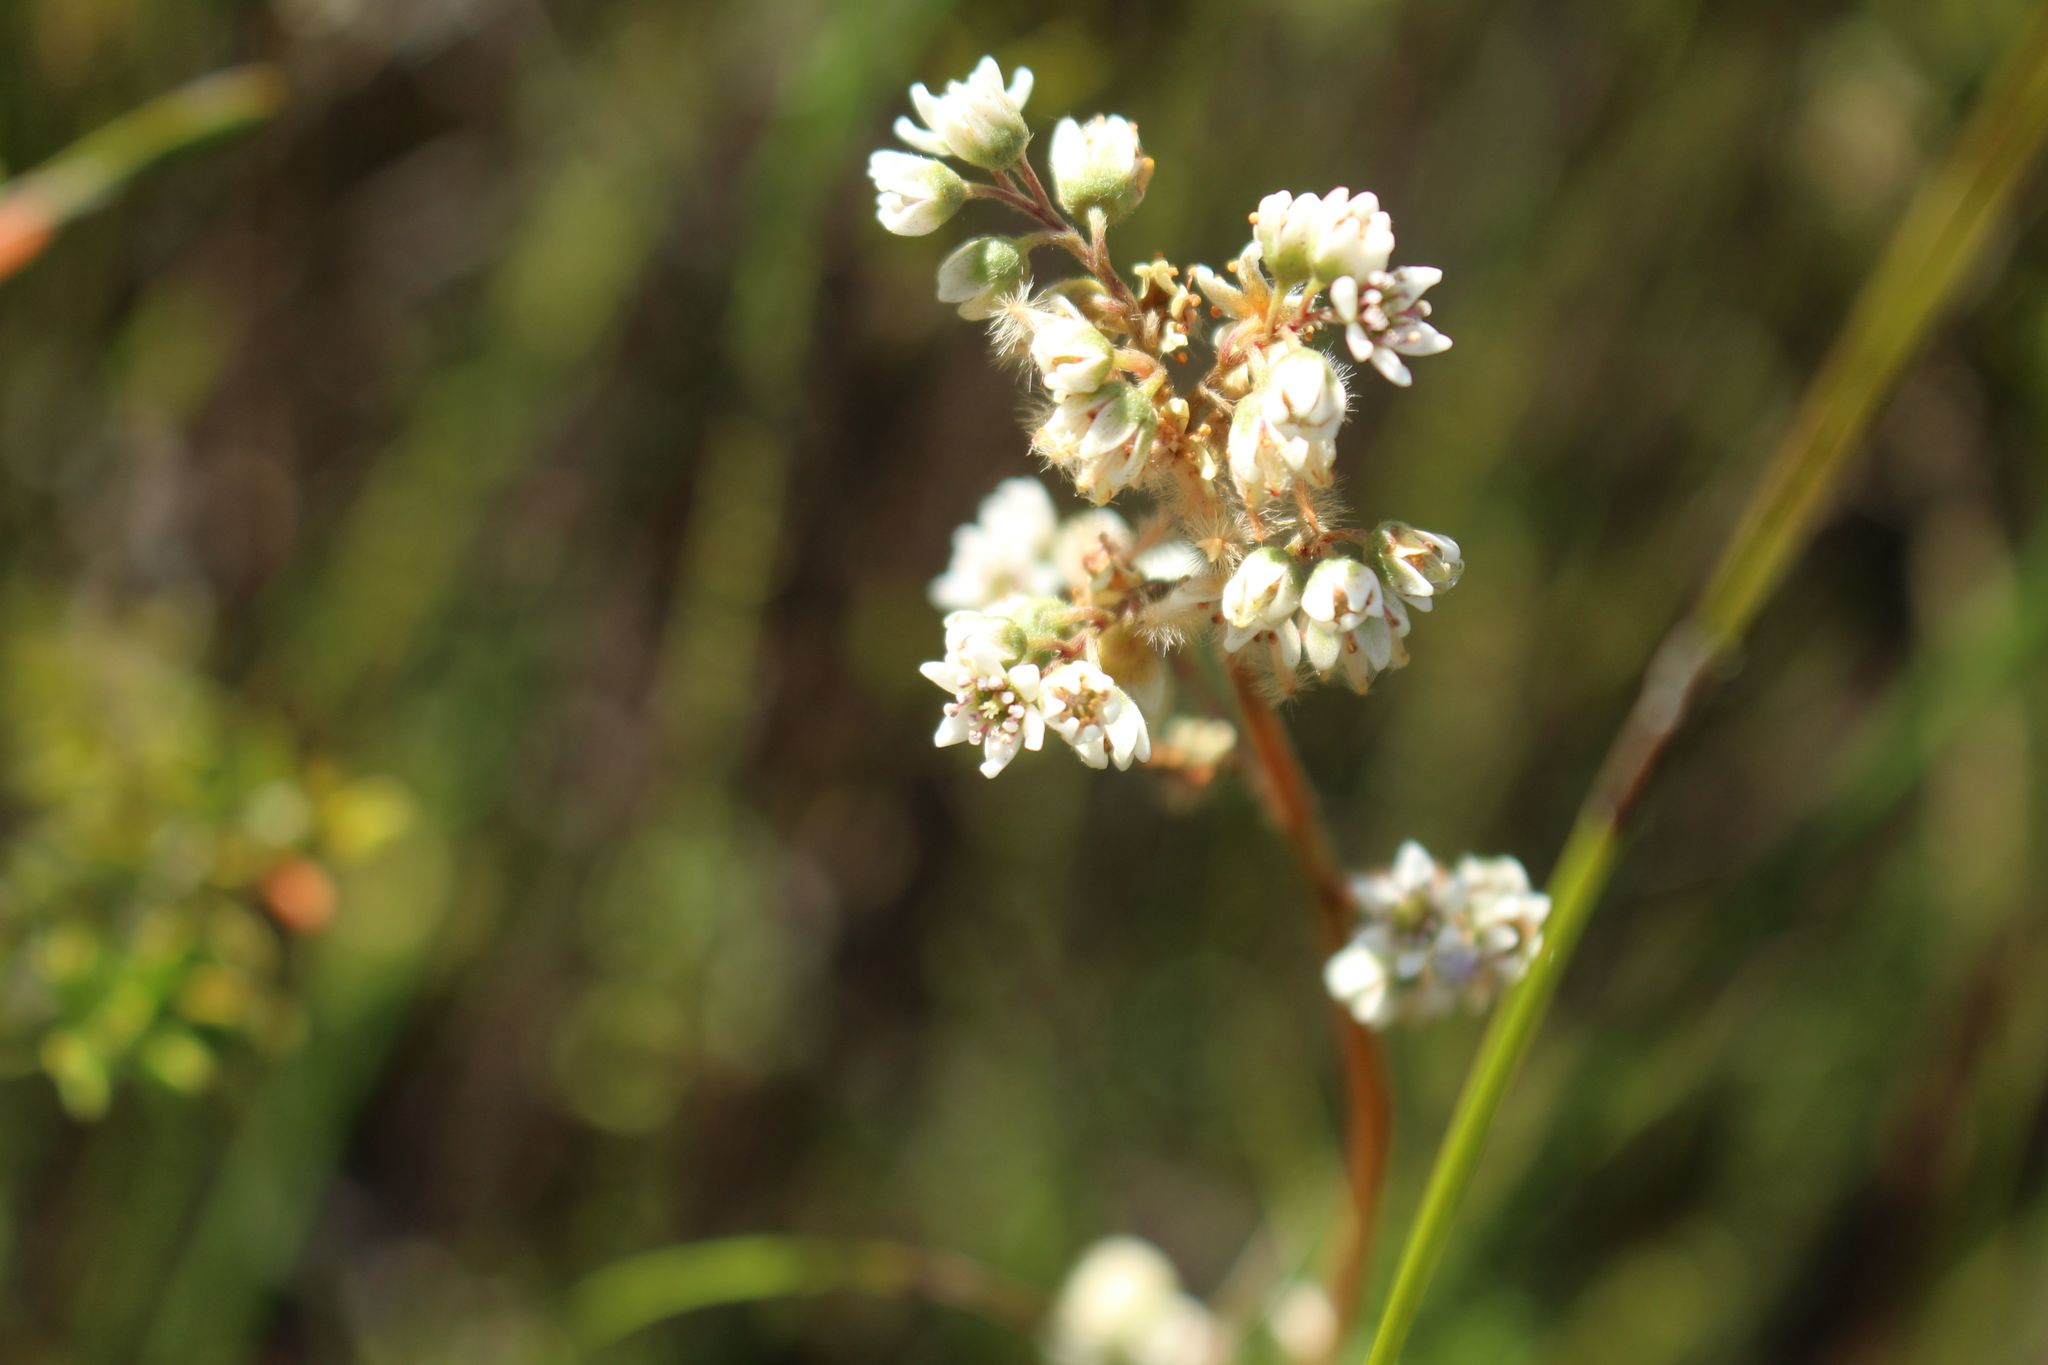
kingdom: Plantae
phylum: Tracheophyta
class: Magnoliopsida
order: Oxalidales
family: Cephalotaceae
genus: Cephalotus
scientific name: Cephalotus follicularis
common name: Australian pitcher plant
